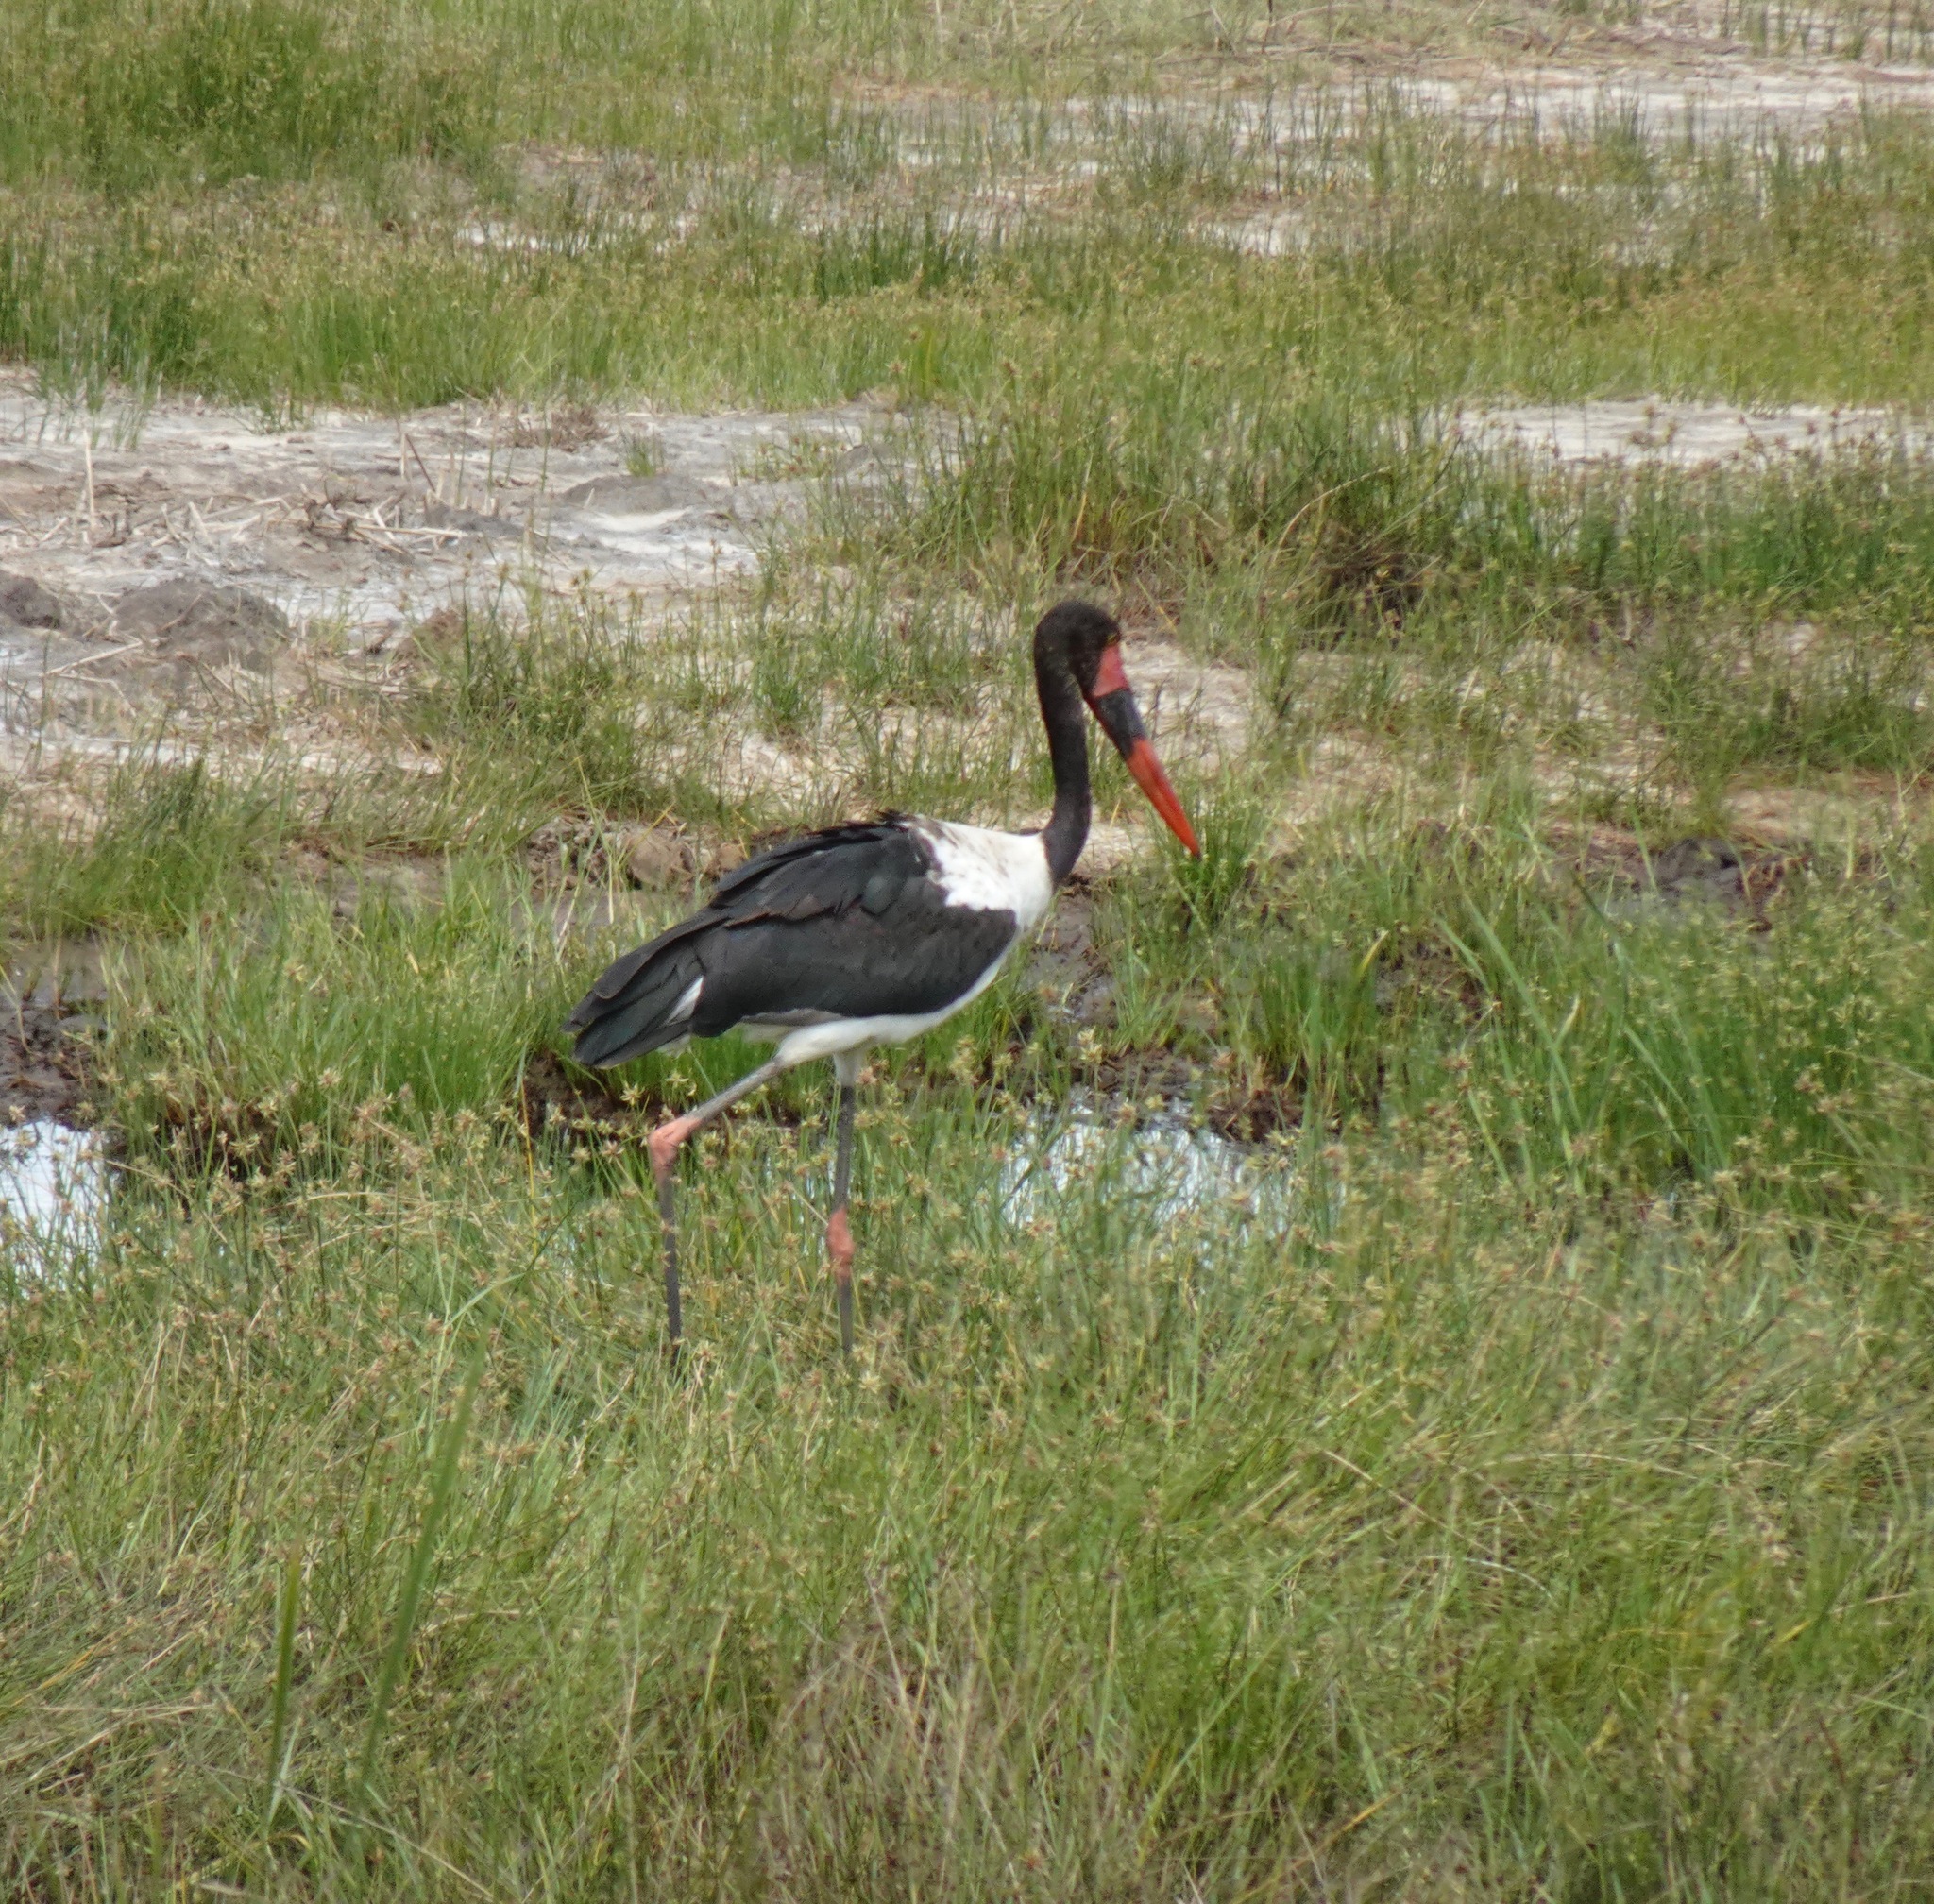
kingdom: Animalia
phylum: Chordata
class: Aves
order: Ciconiiformes
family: Ciconiidae
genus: Ephippiorhynchus
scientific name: Ephippiorhynchus senegalensis
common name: Saddle-billed stork
